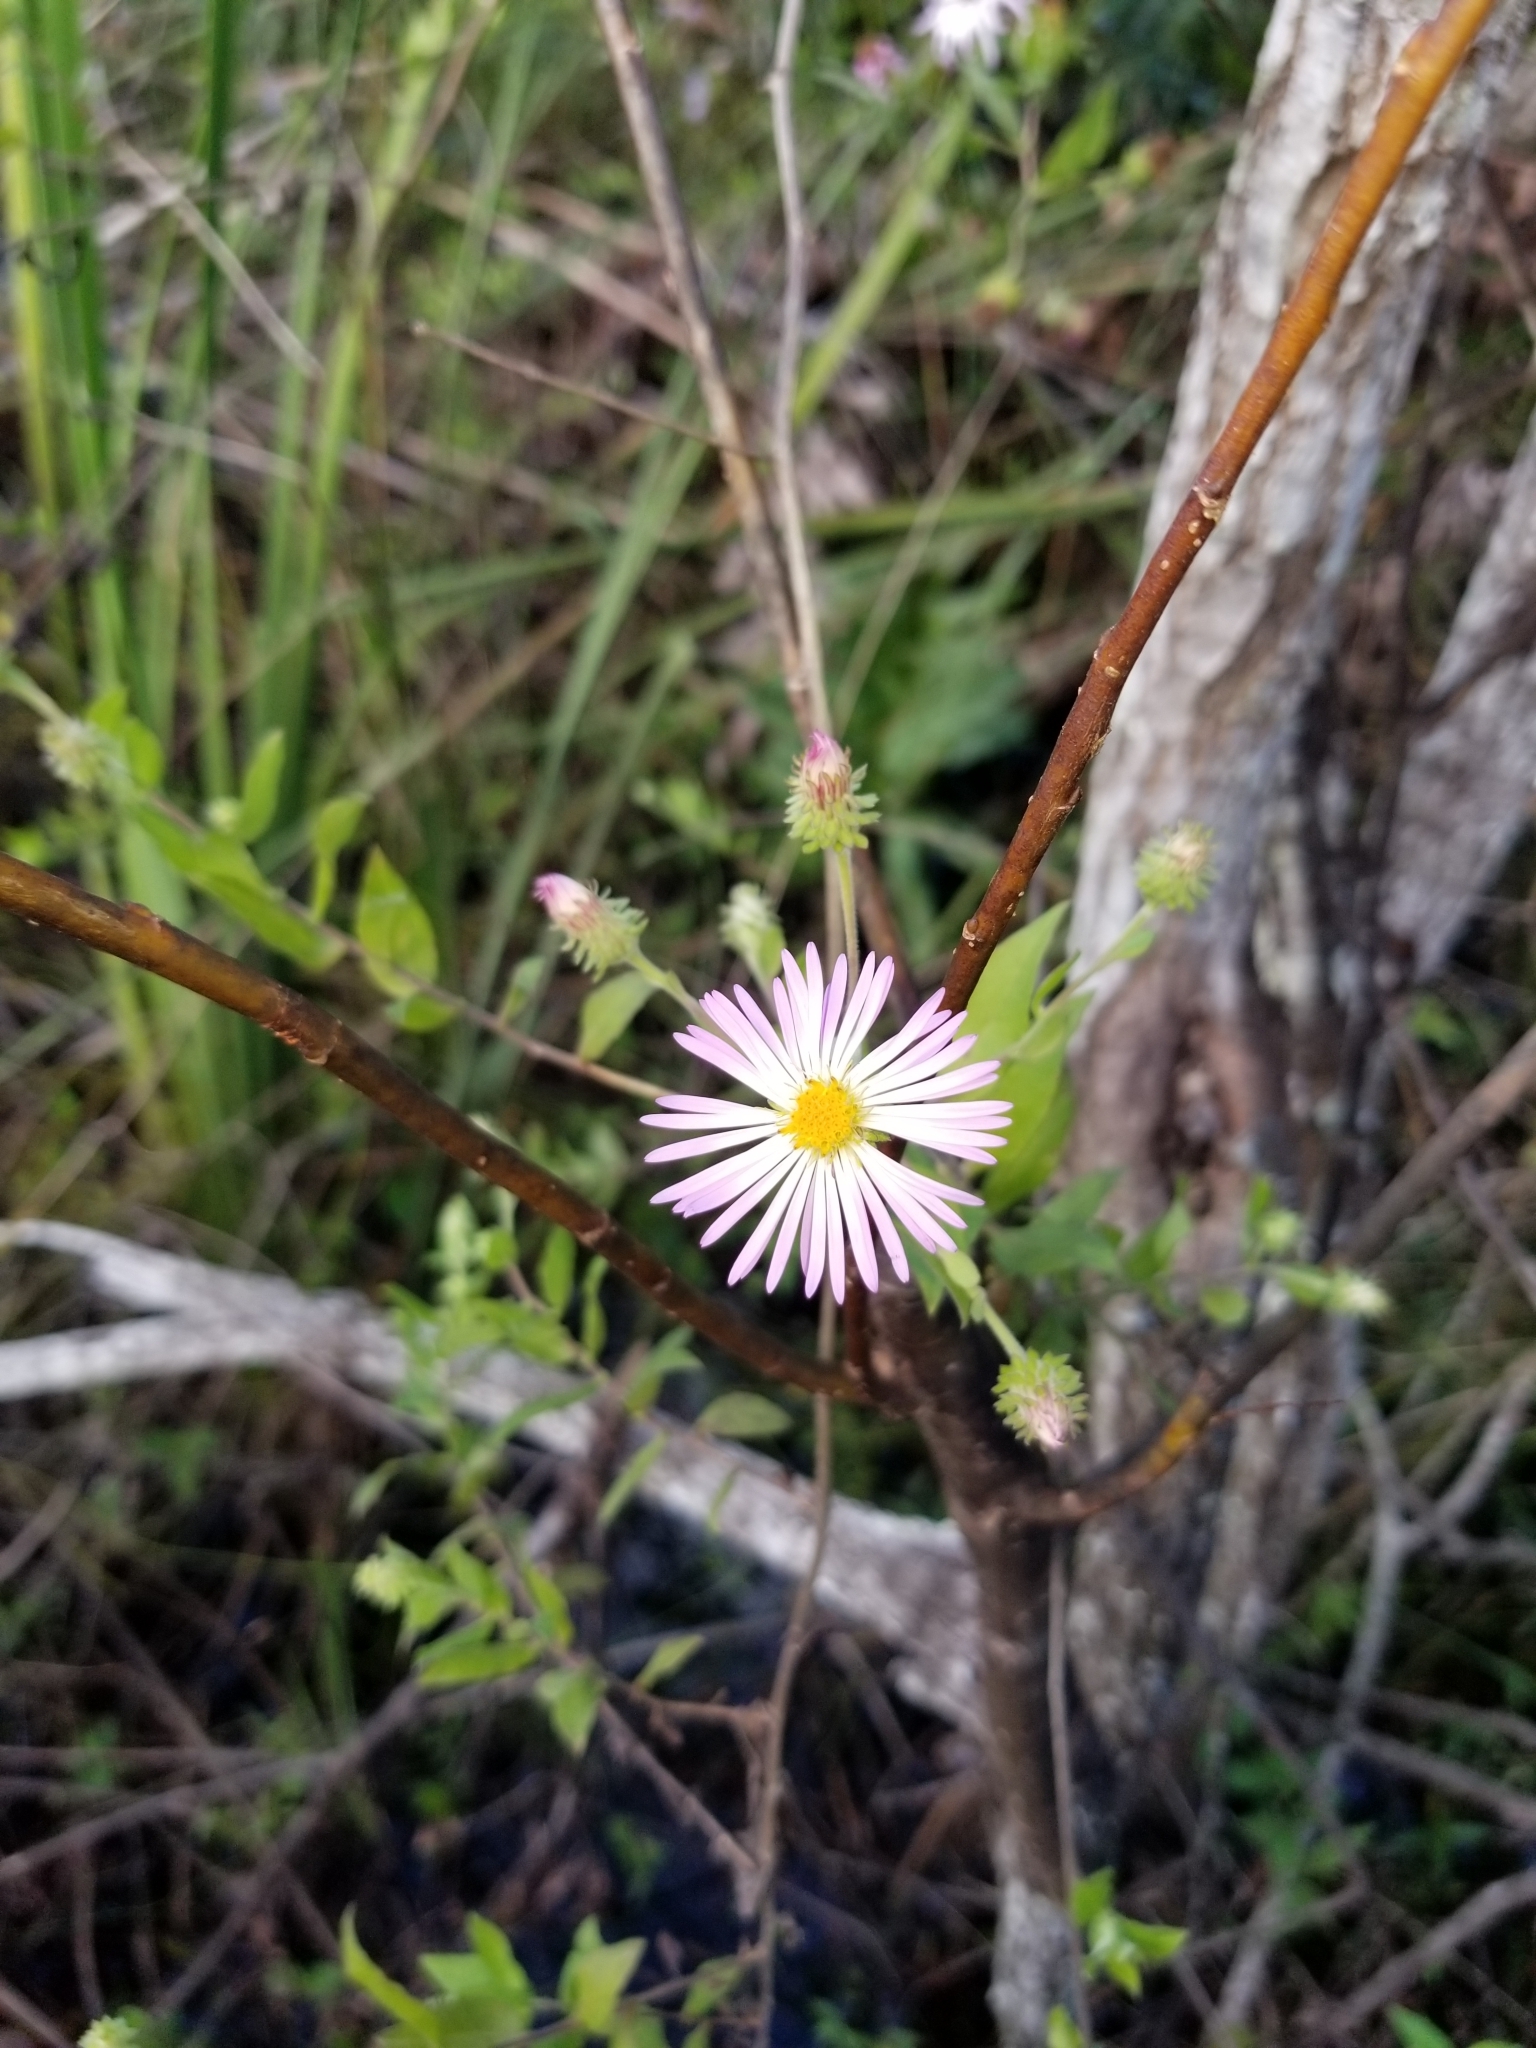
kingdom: Plantae
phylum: Tracheophyta
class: Magnoliopsida
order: Asterales
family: Asteraceae
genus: Ampelaster
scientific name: Ampelaster carolinianus
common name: Climbing aster
